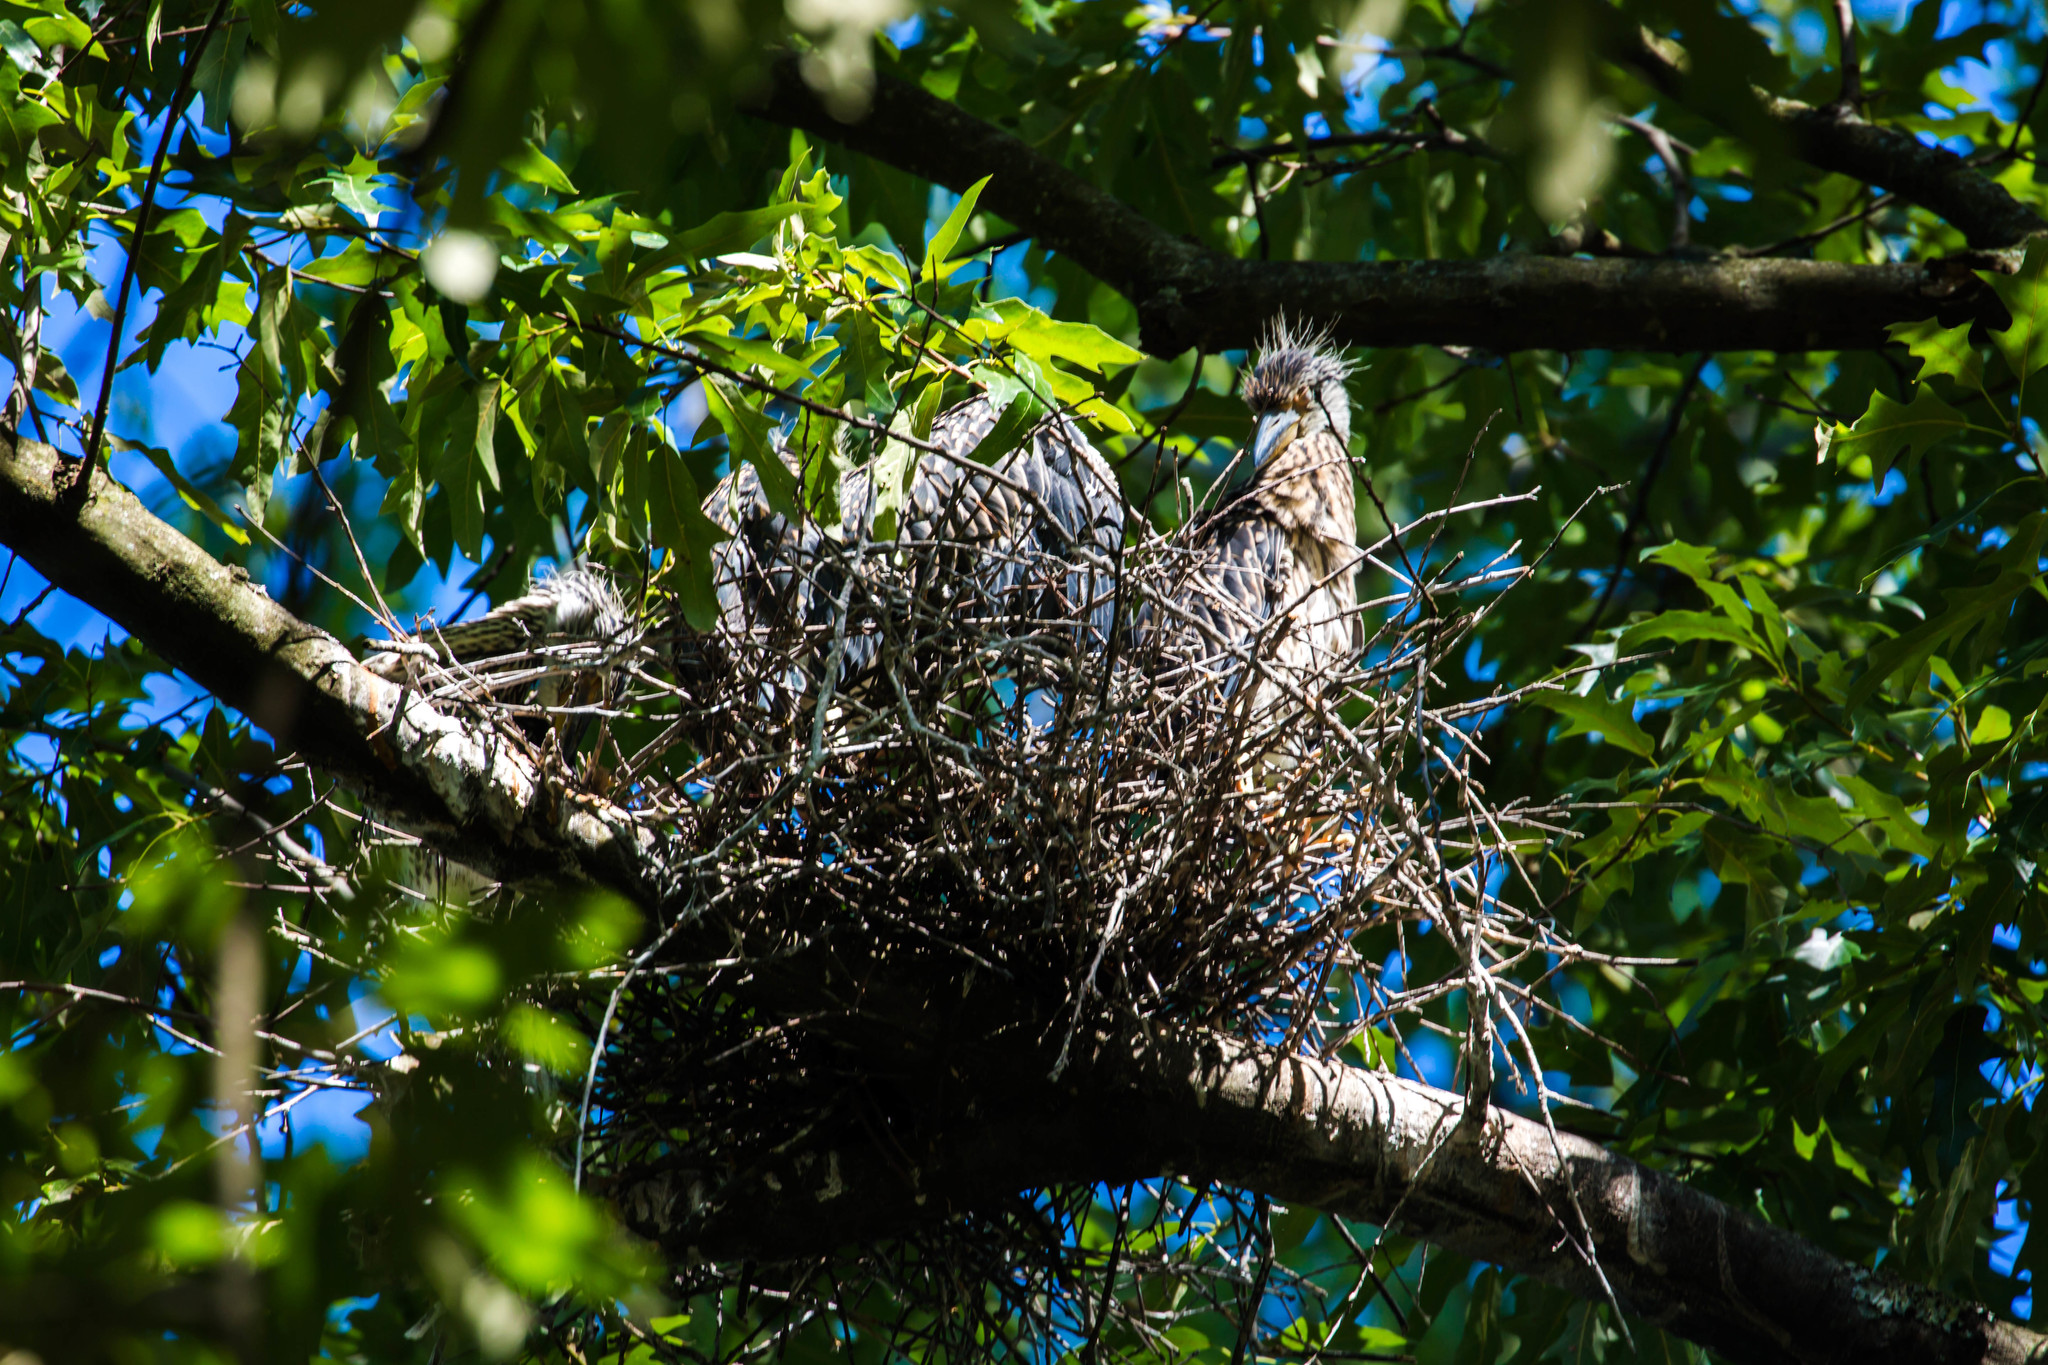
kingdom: Animalia
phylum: Chordata
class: Aves
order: Pelecaniformes
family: Ardeidae
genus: Nyctanassa
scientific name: Nyctanassa violacea
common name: Yellow-crowned night heron
